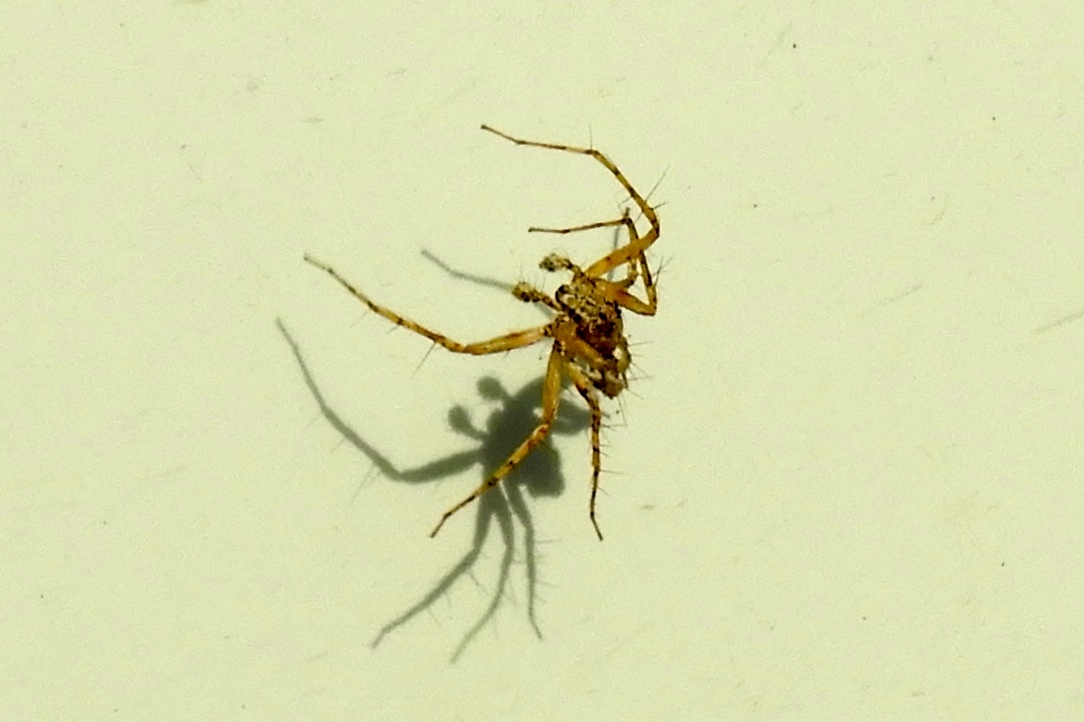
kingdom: Animalia
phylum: Arthropoda
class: Arachnida
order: Araneae
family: Oxyopidae
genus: Oxyopes
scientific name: Oxyopes
